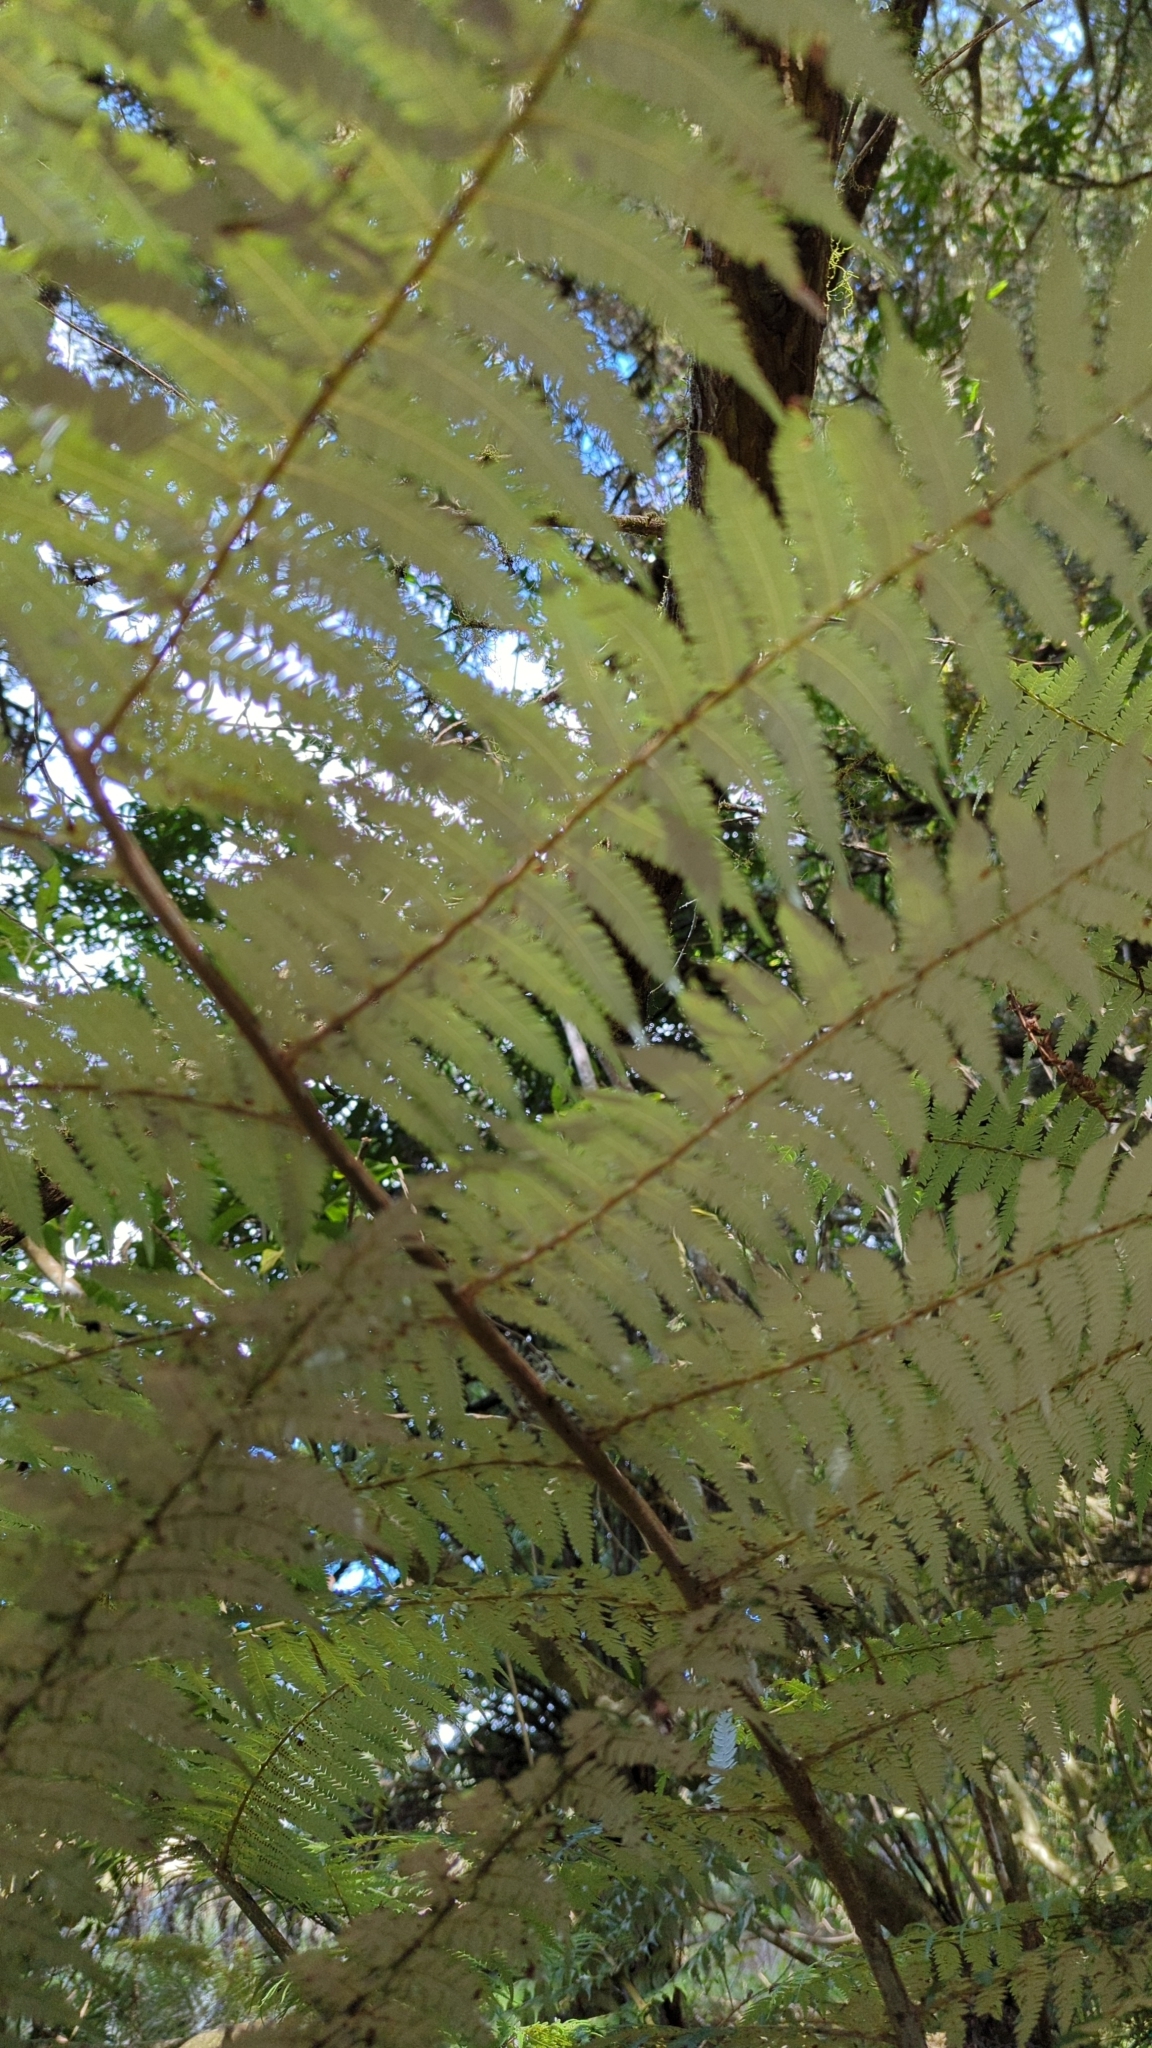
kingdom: Plantae
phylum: Tracheophyta
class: Polypodiopsida
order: Cyatheales
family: Cyatheaceae
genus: Alsophila
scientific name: Alsophila dealbata
